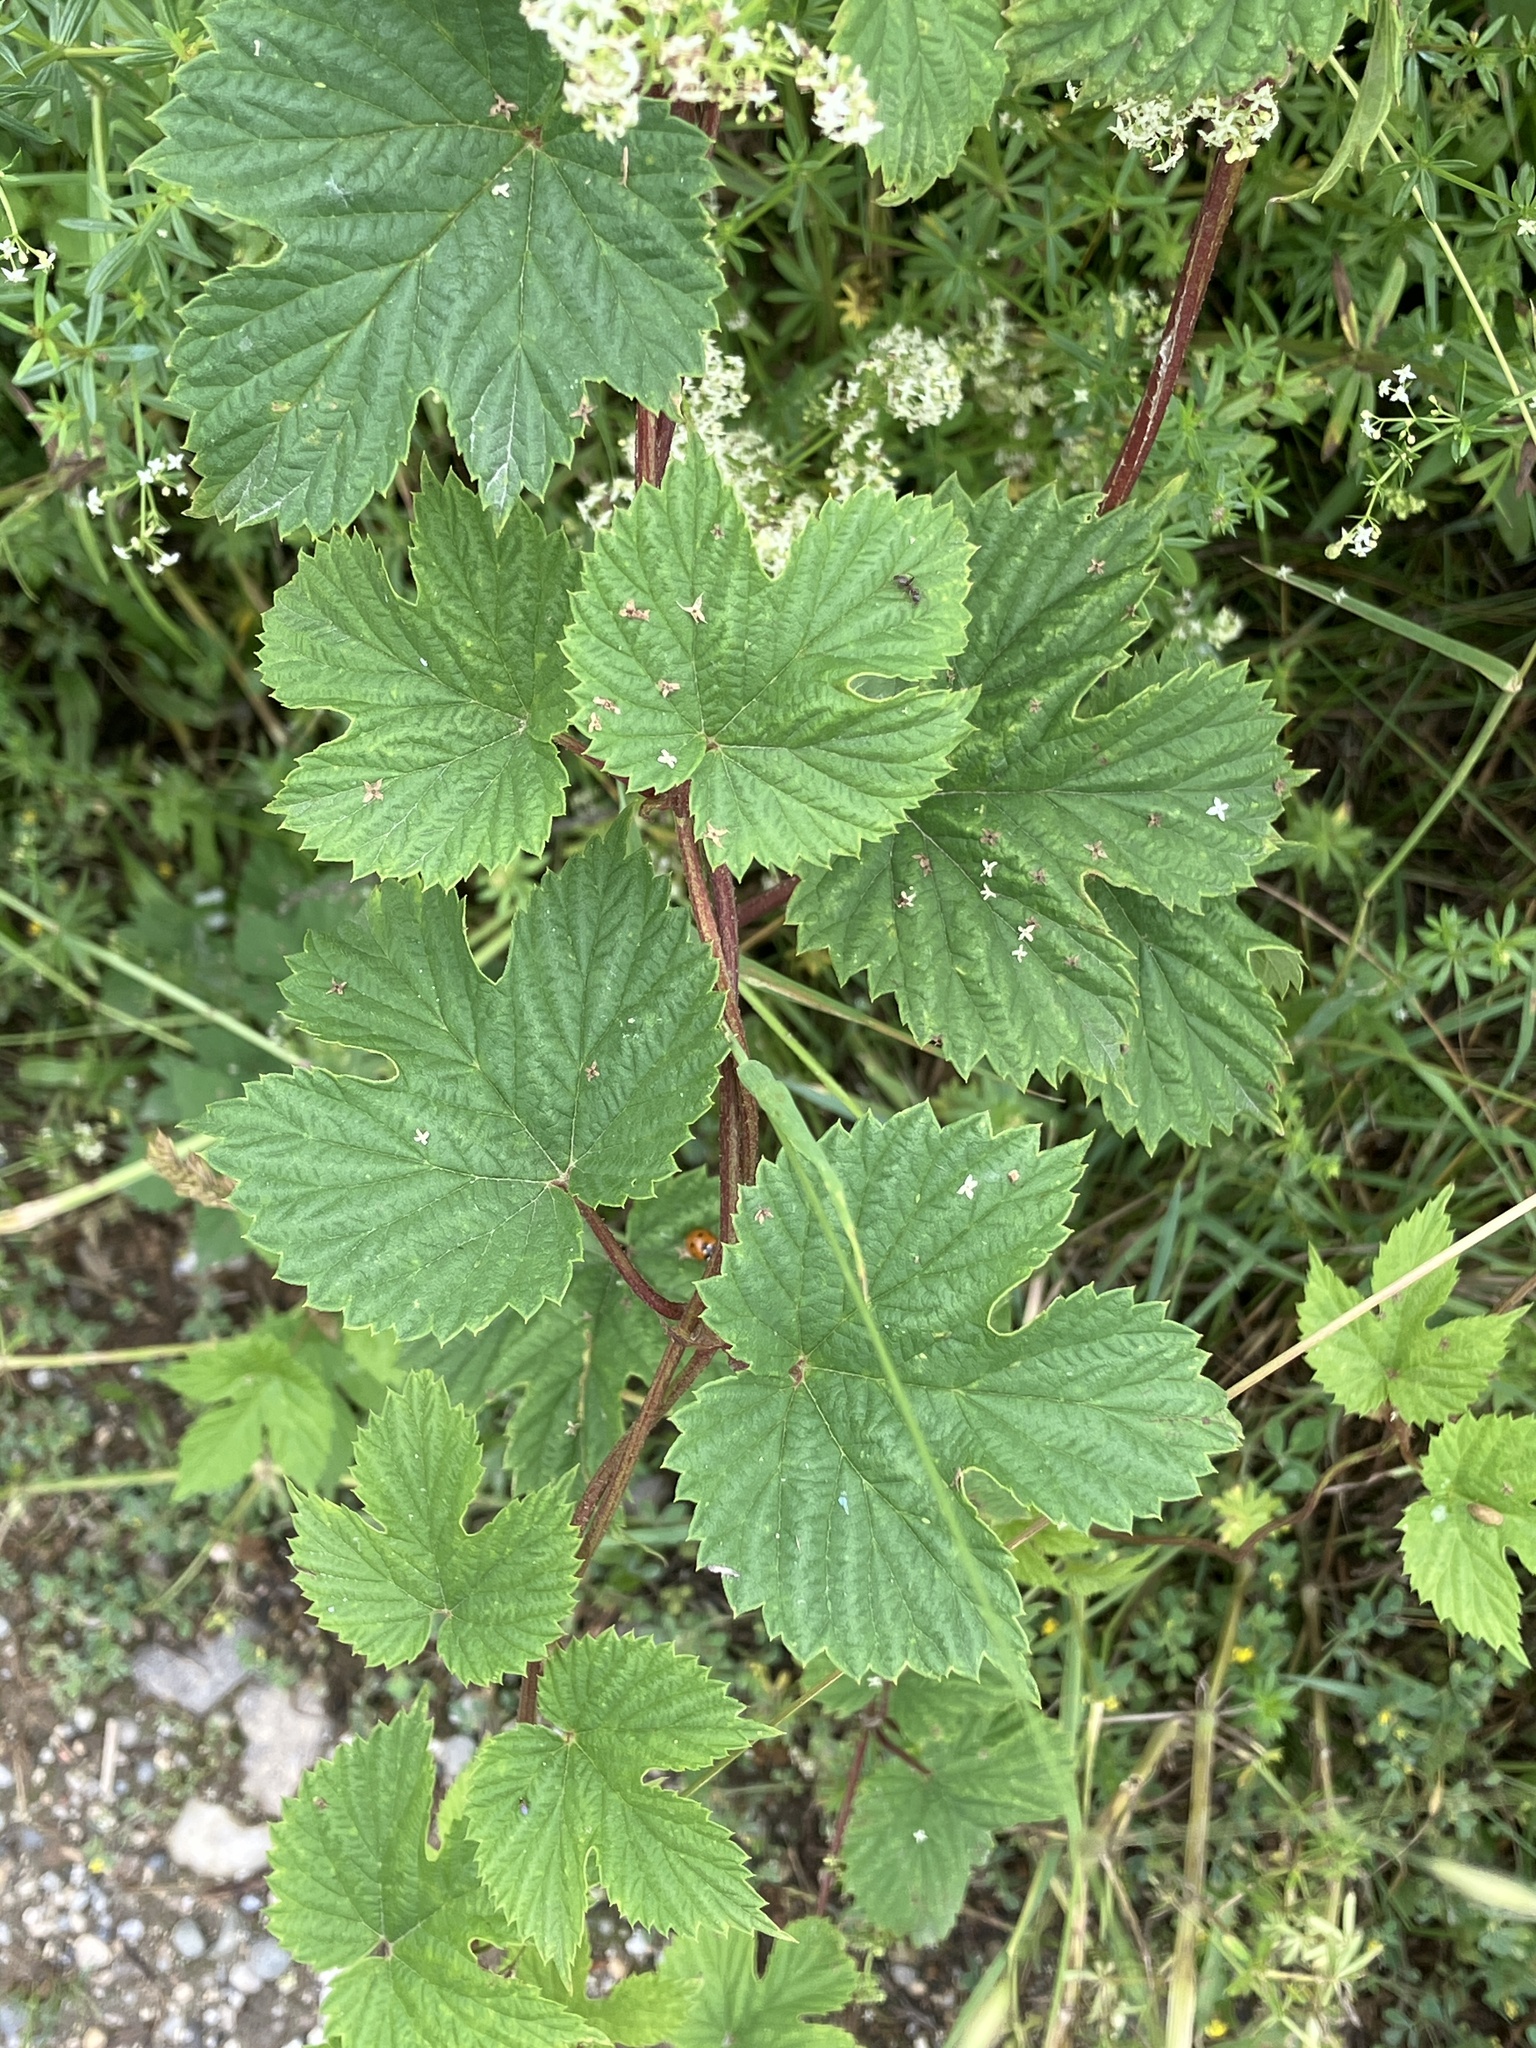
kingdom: Plantae
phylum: Tracheophyta
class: Magnoliopsida
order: Rosales
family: Cannabaceae
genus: Humulus
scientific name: Humulus lupulus
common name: Hop
